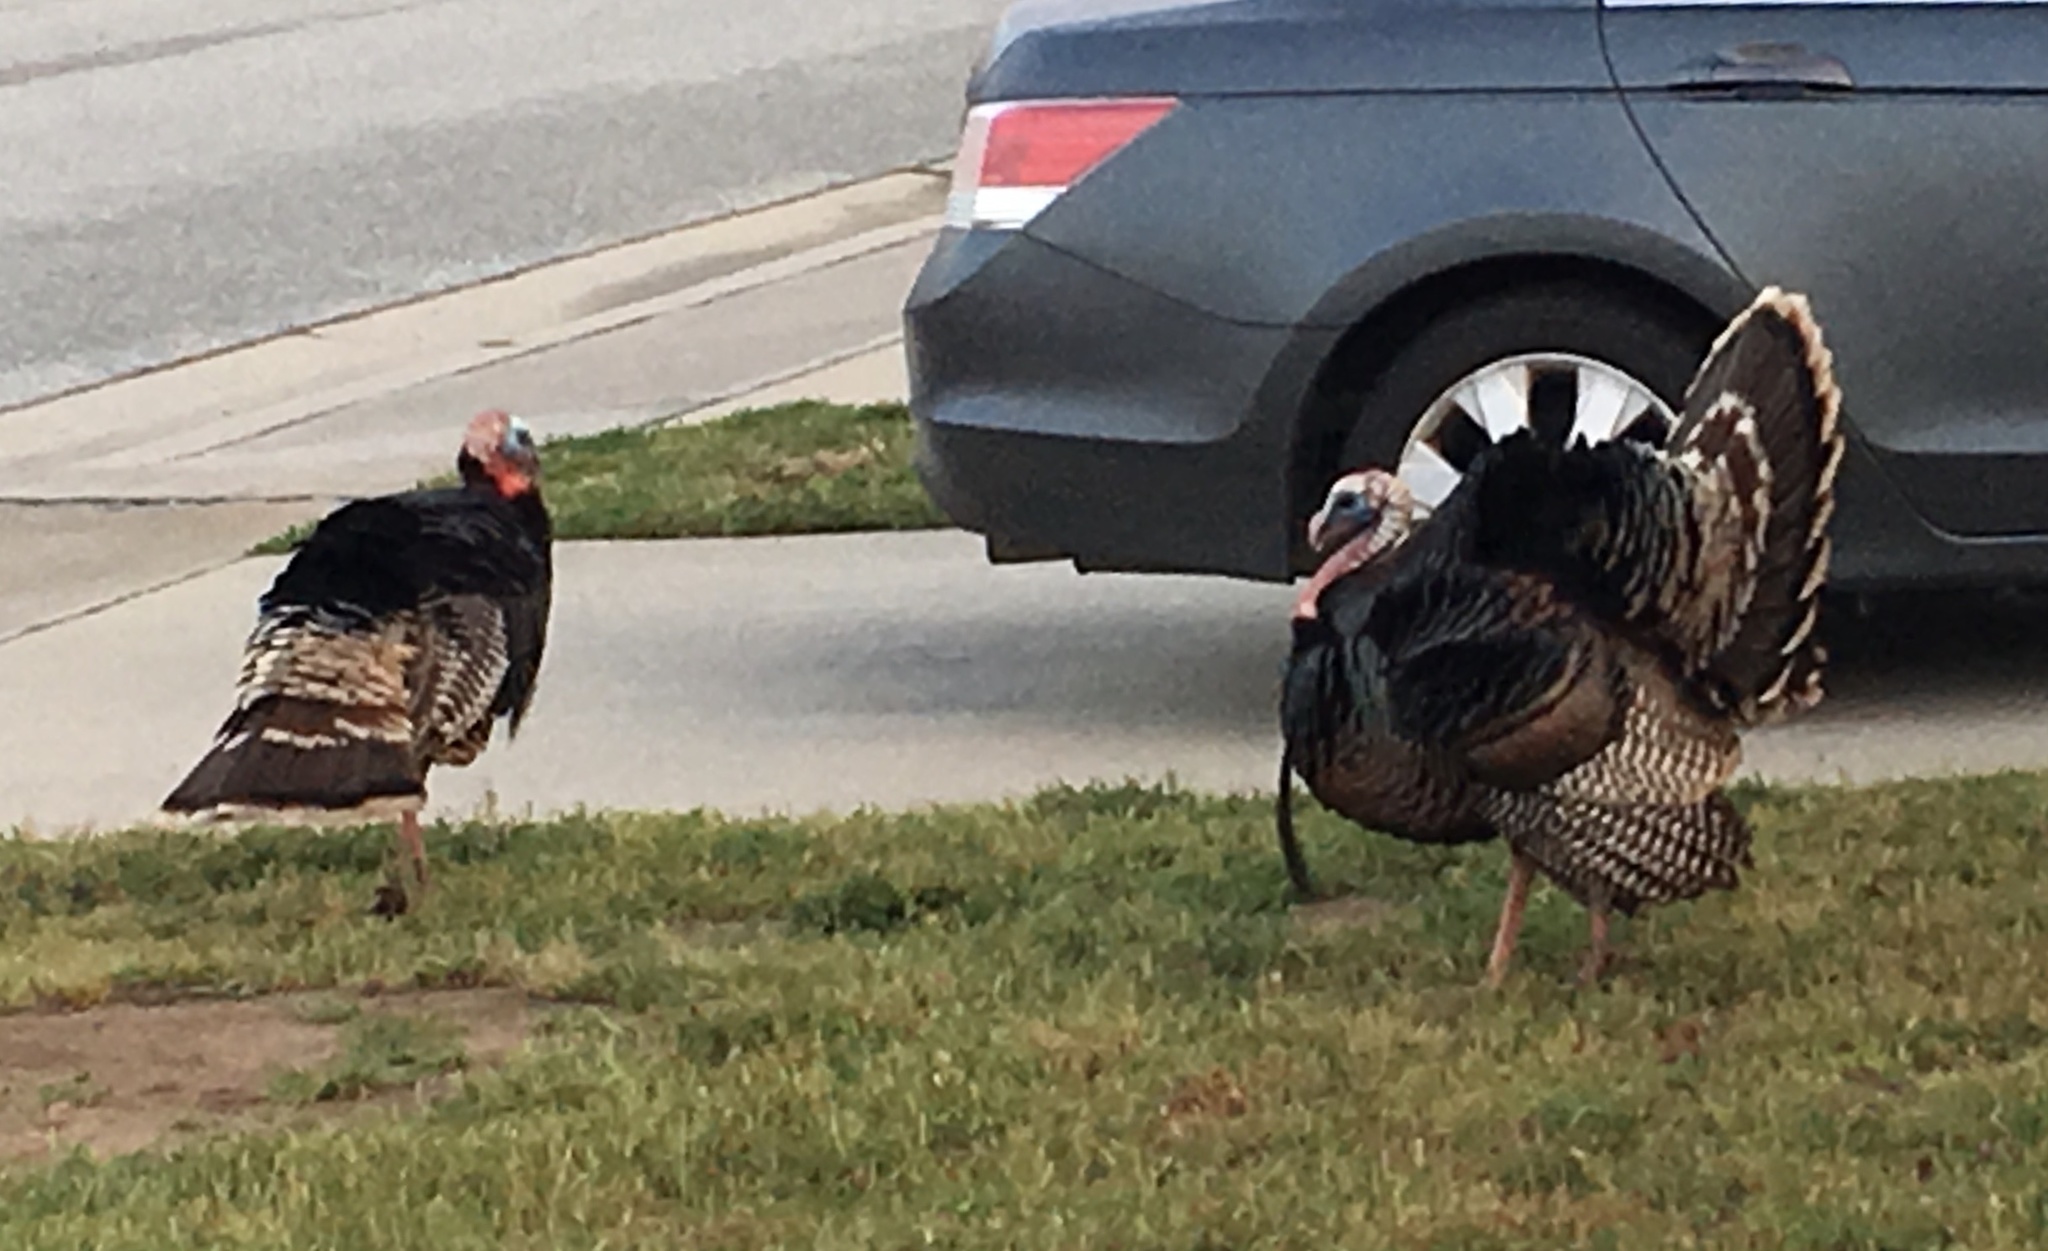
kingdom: Animalia
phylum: Chordata
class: Aves
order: Galliformes
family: Phasianidae
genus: Meleagris
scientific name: Meleagris gallopavo
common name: Wild turkey
